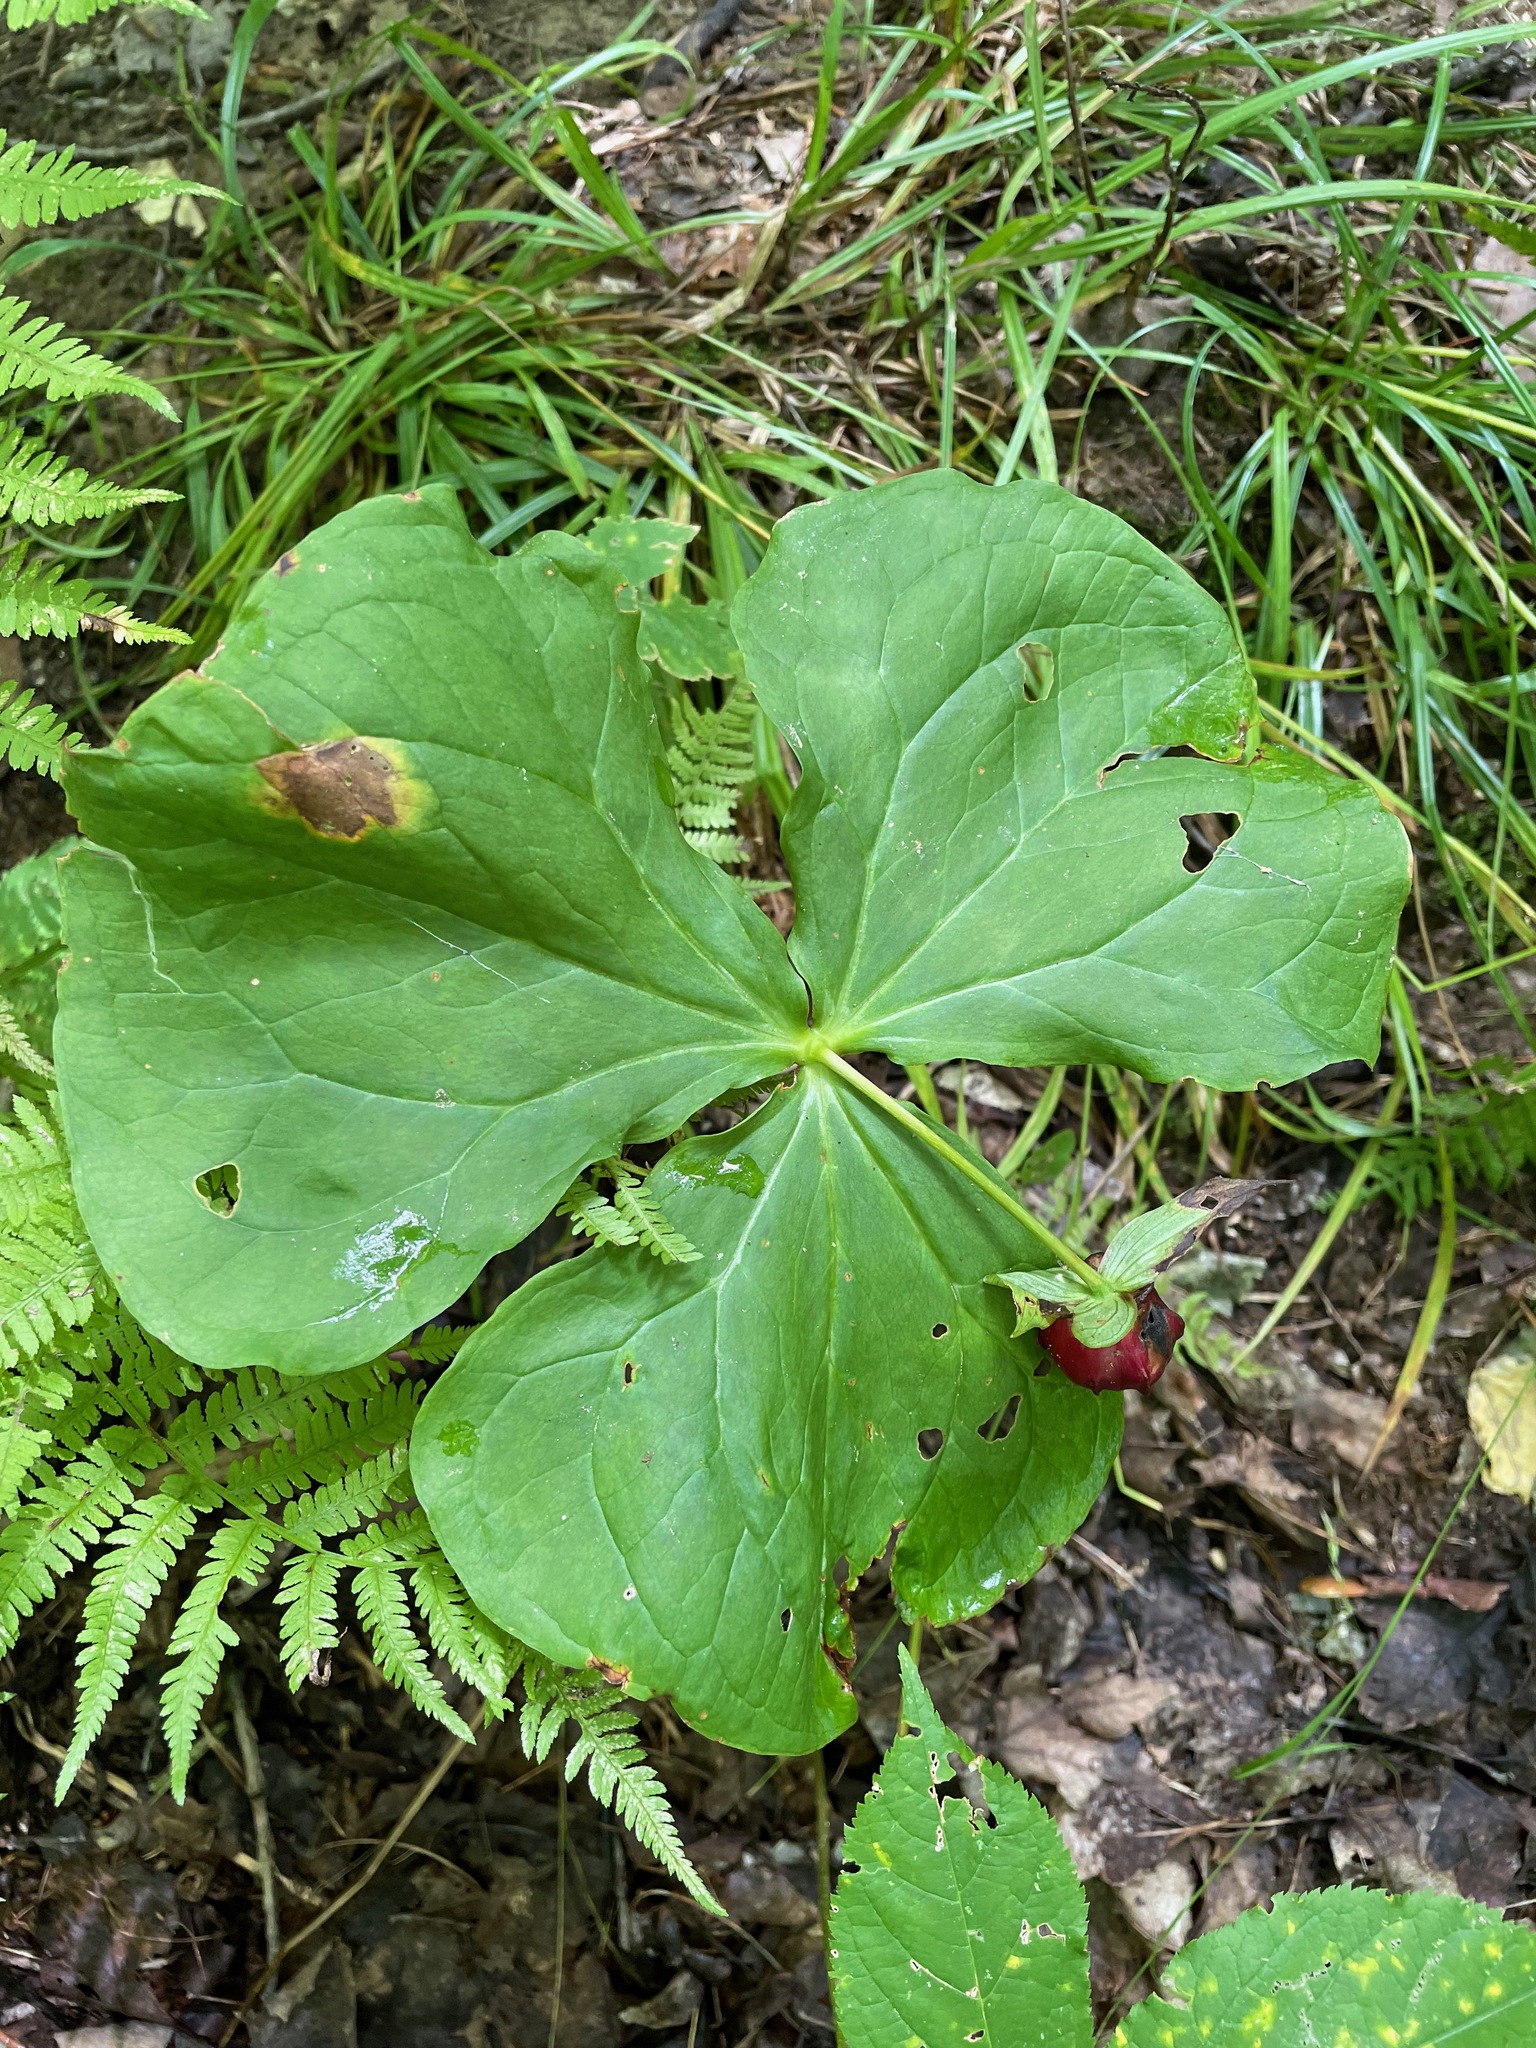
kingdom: Plantae
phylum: Tracheophyta
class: Liliopsida
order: Liliales
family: Melanthiaceae
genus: Trillium
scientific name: Trillium erectum
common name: Purple trillium
